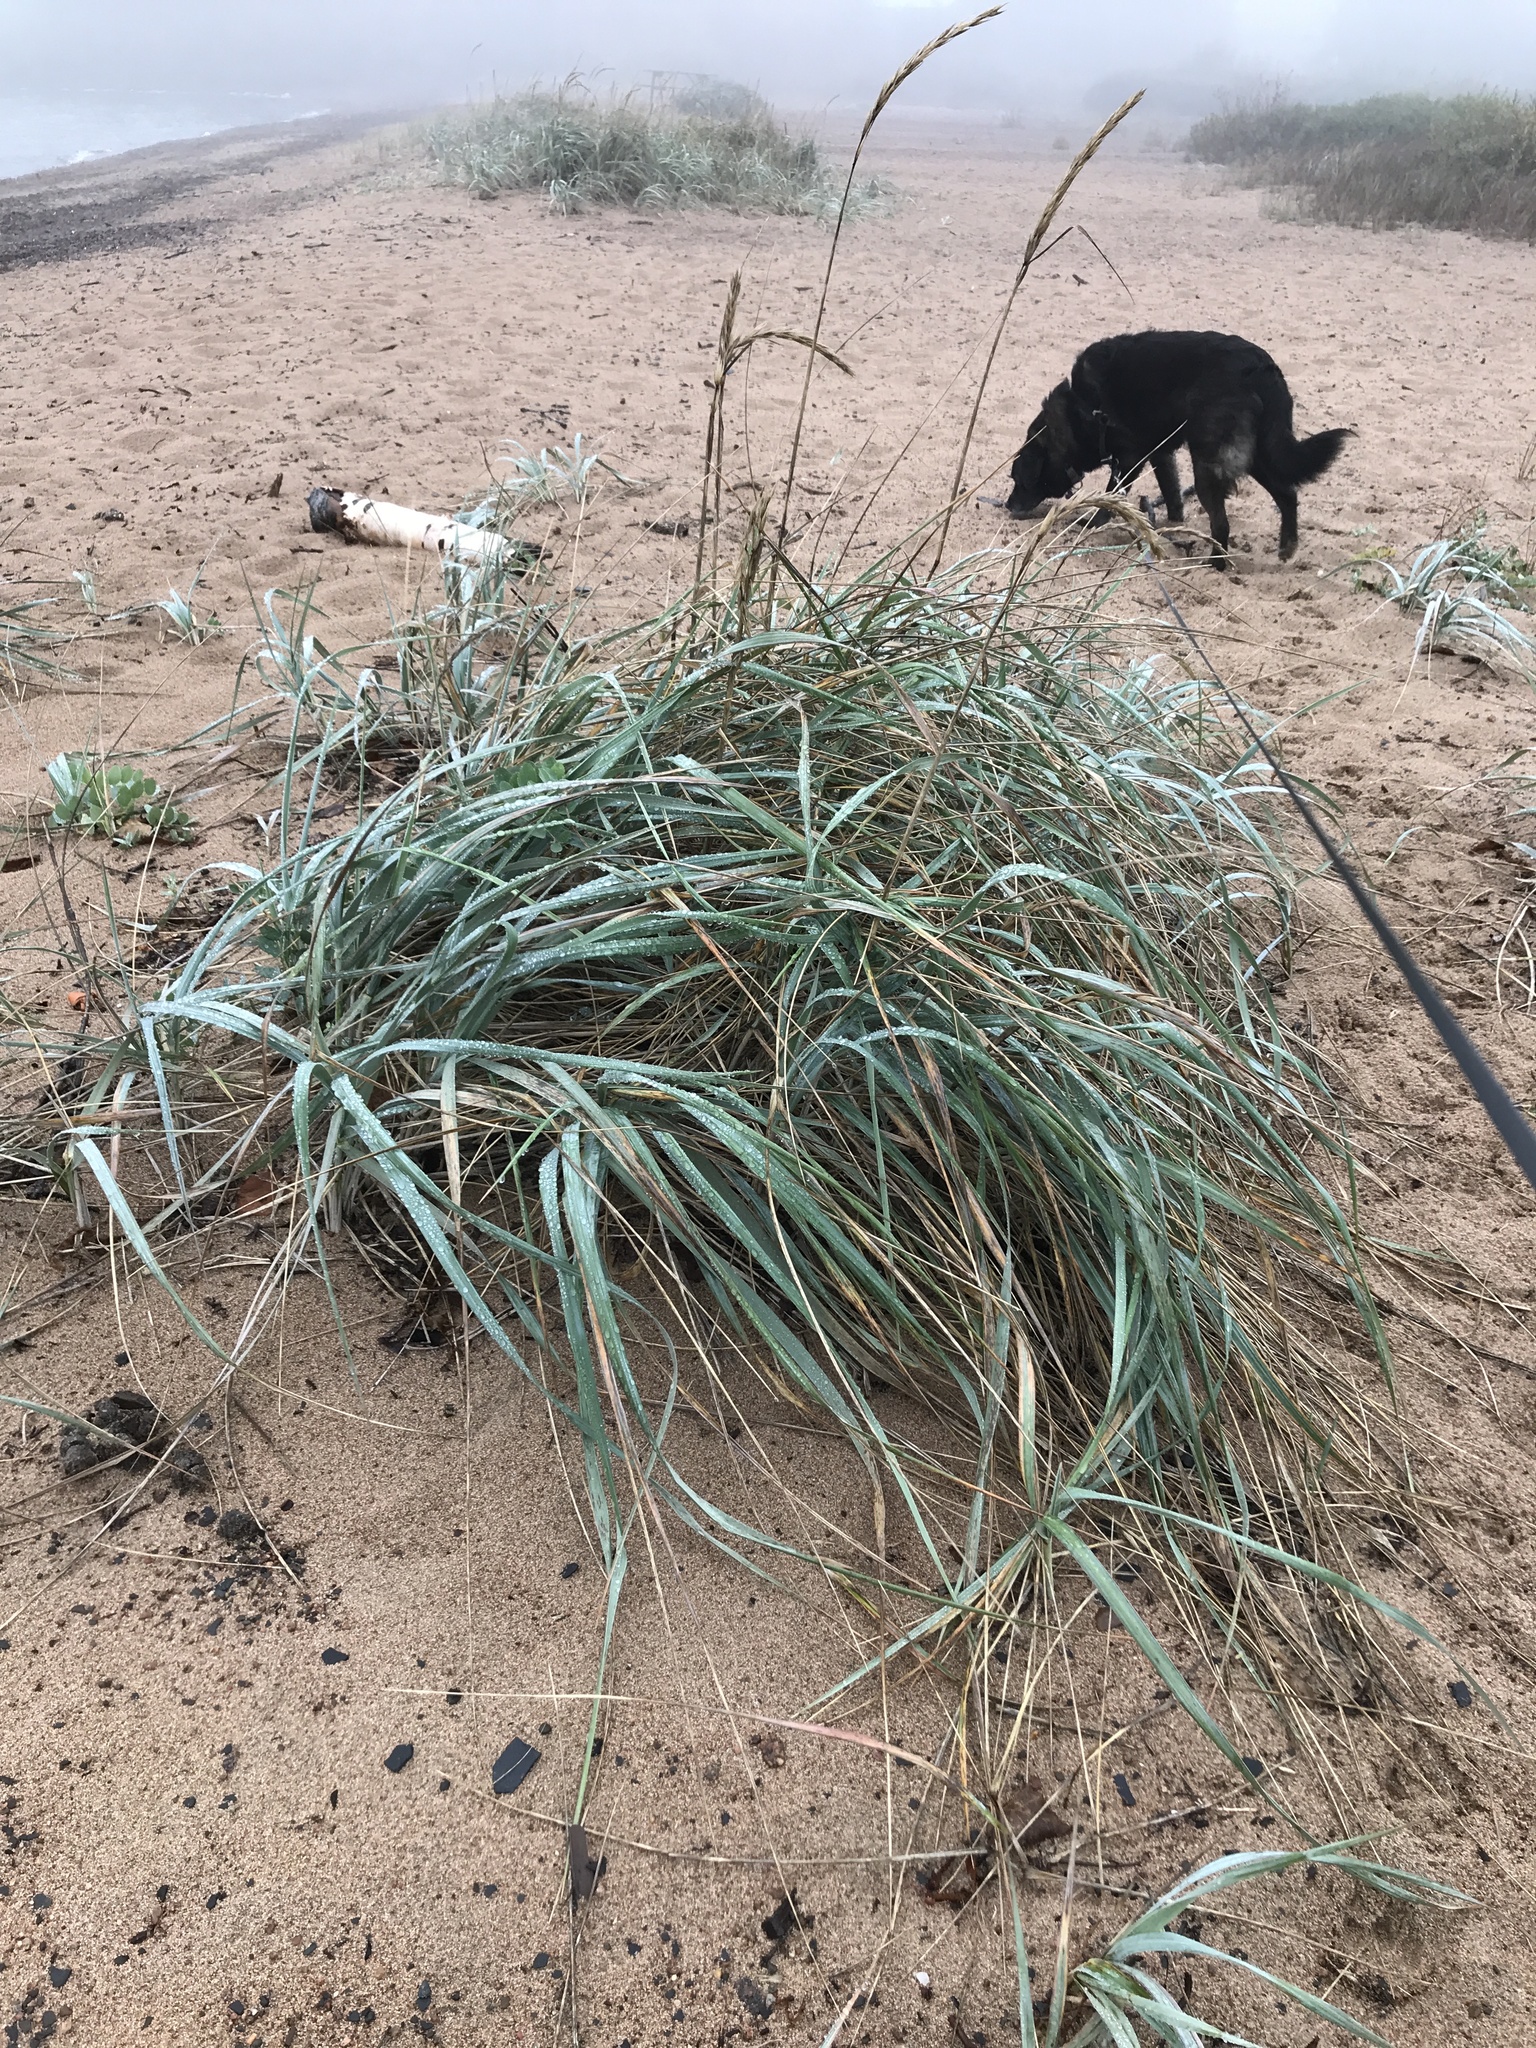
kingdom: Plantae
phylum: Tracheophyta
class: Liliopsida
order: Poales
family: Poaceae
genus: Leymus
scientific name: Leymus mollis
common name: American dune grass
